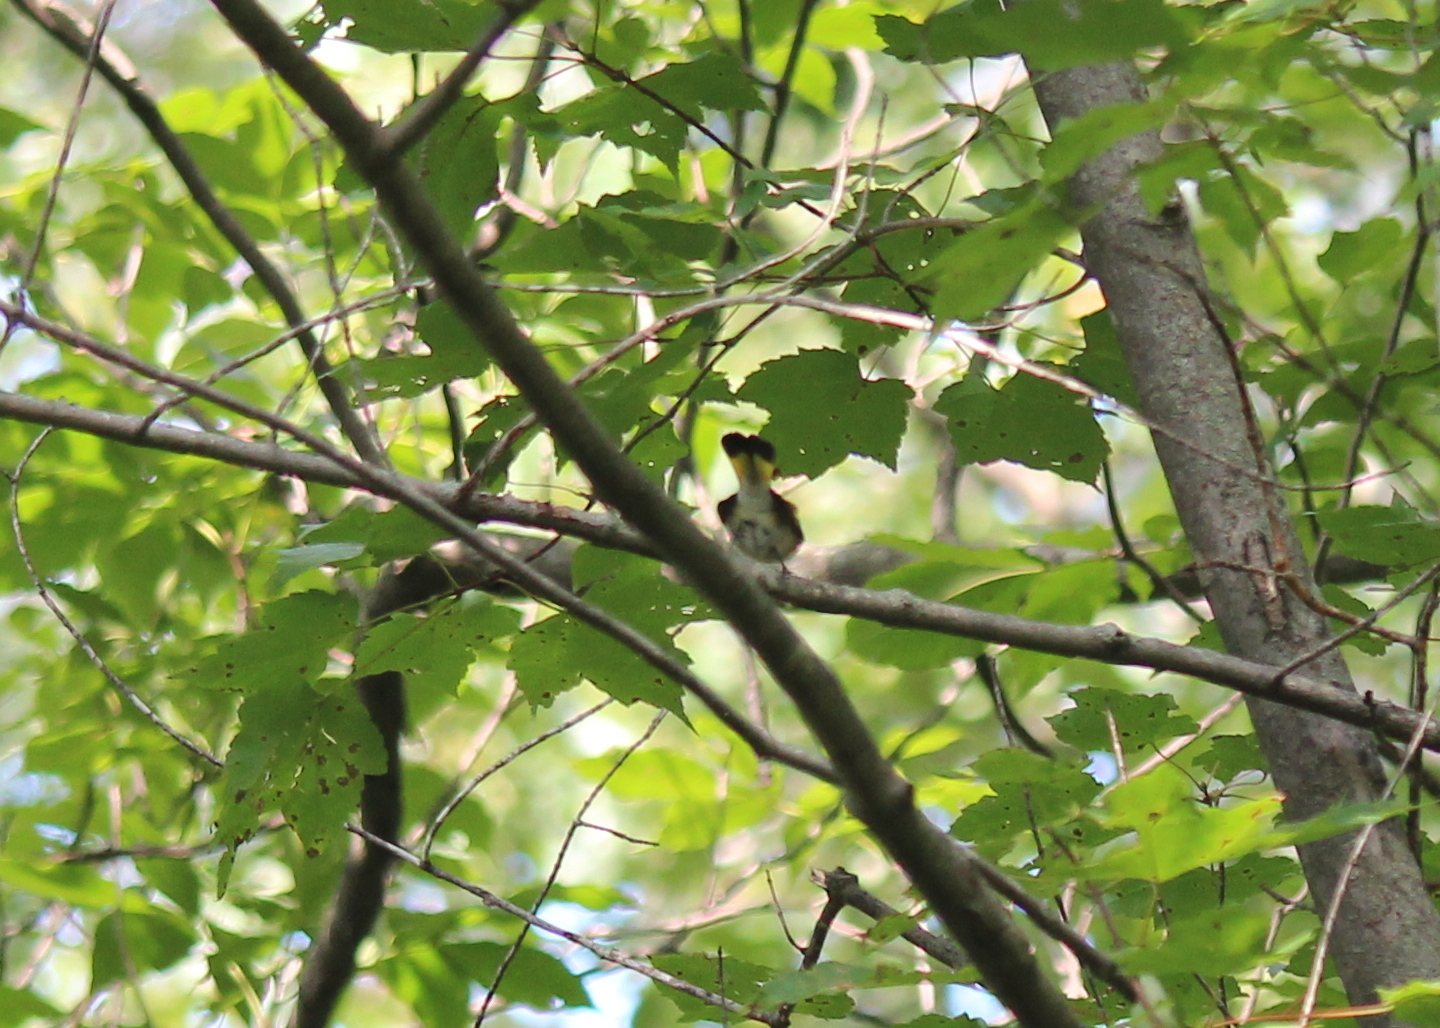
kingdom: Animalia
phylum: Chordata
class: Aves
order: Passeriformes
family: Parulidae
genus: Setophaga
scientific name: Setophaga ruticilla
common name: American redstart
